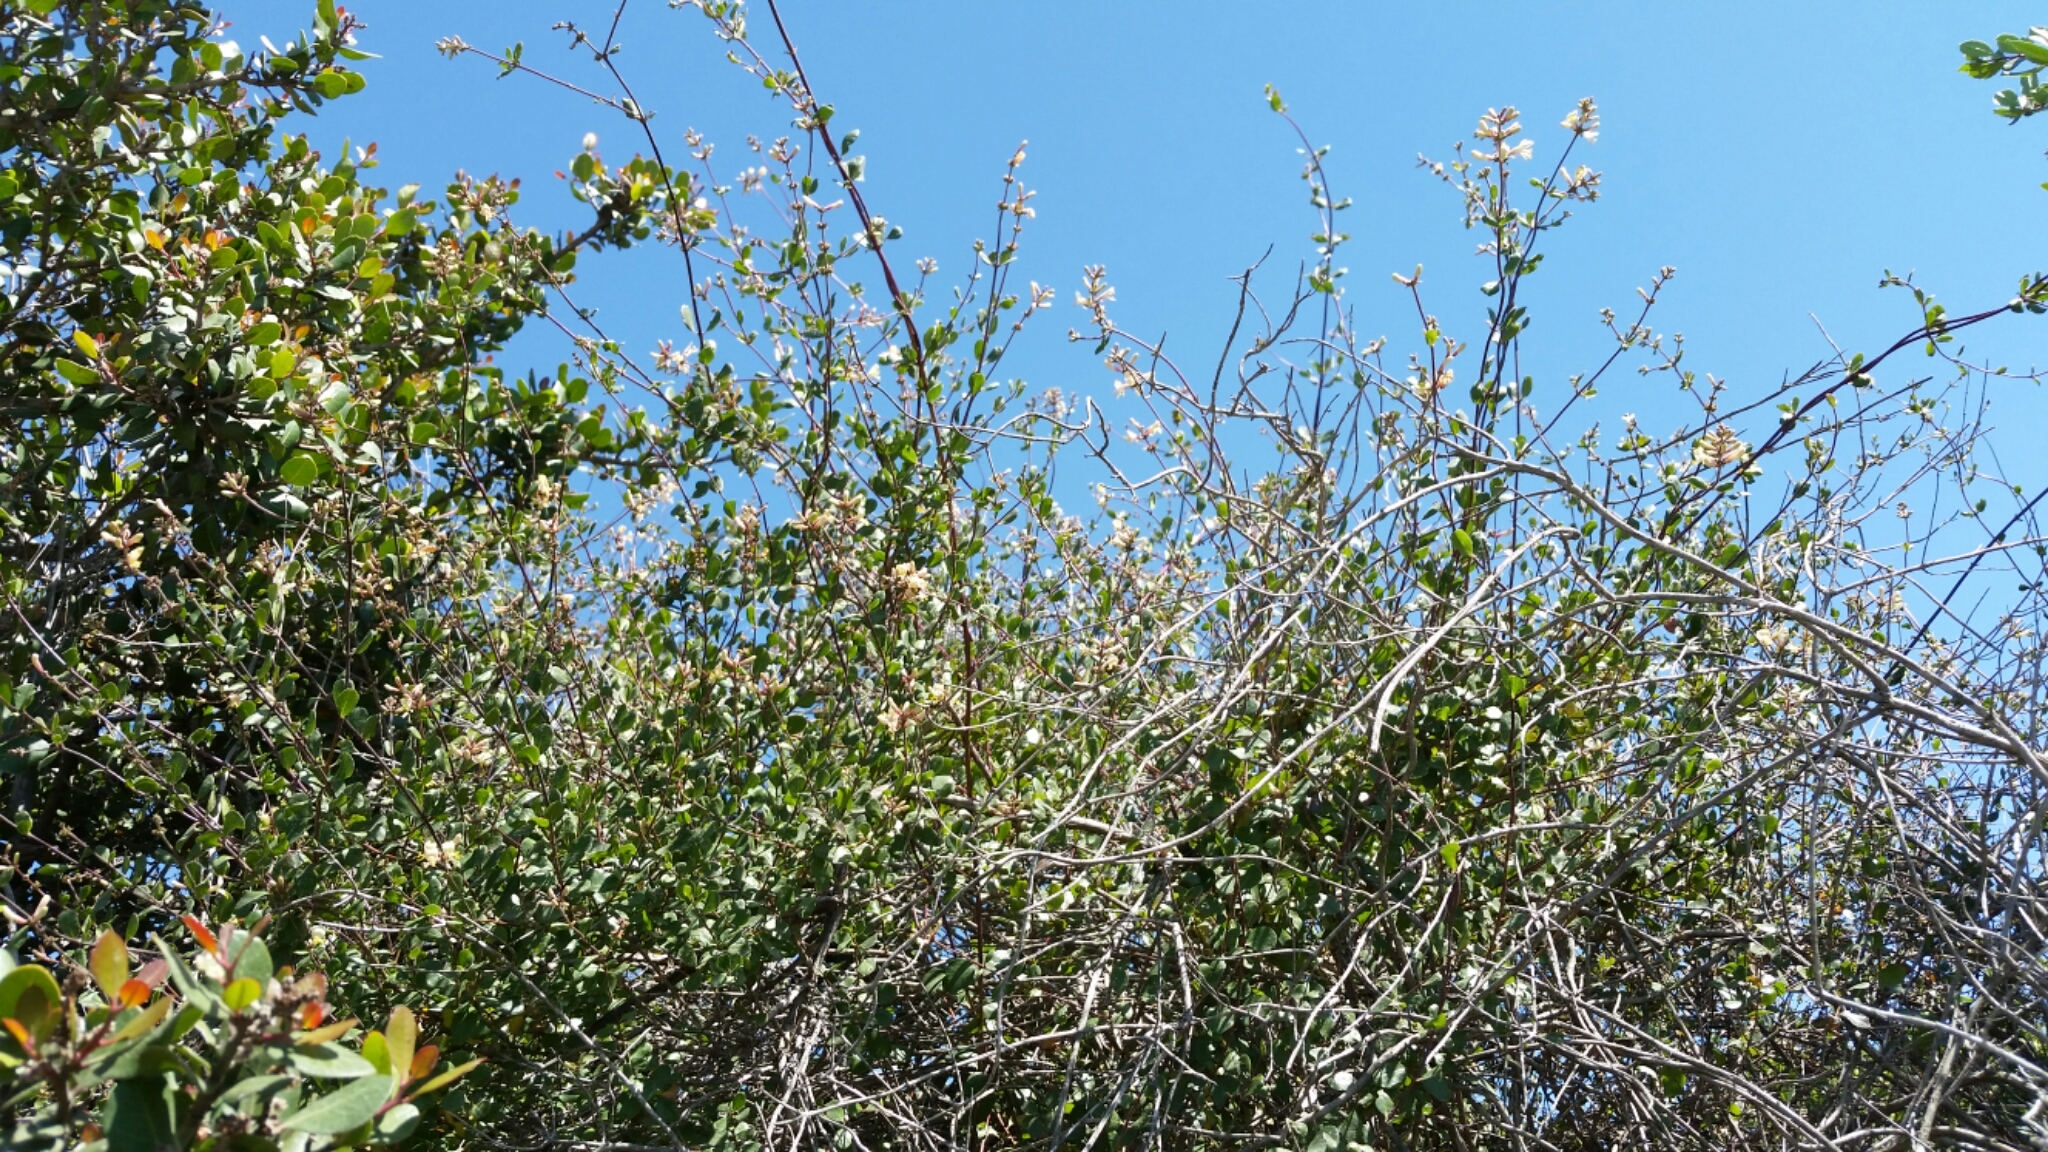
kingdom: Plantae
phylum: Tracheophyta
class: Magnoliopsida
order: Dipsacales
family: Caprifoliaceae
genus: Lonicera
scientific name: Lonicera subspicata
